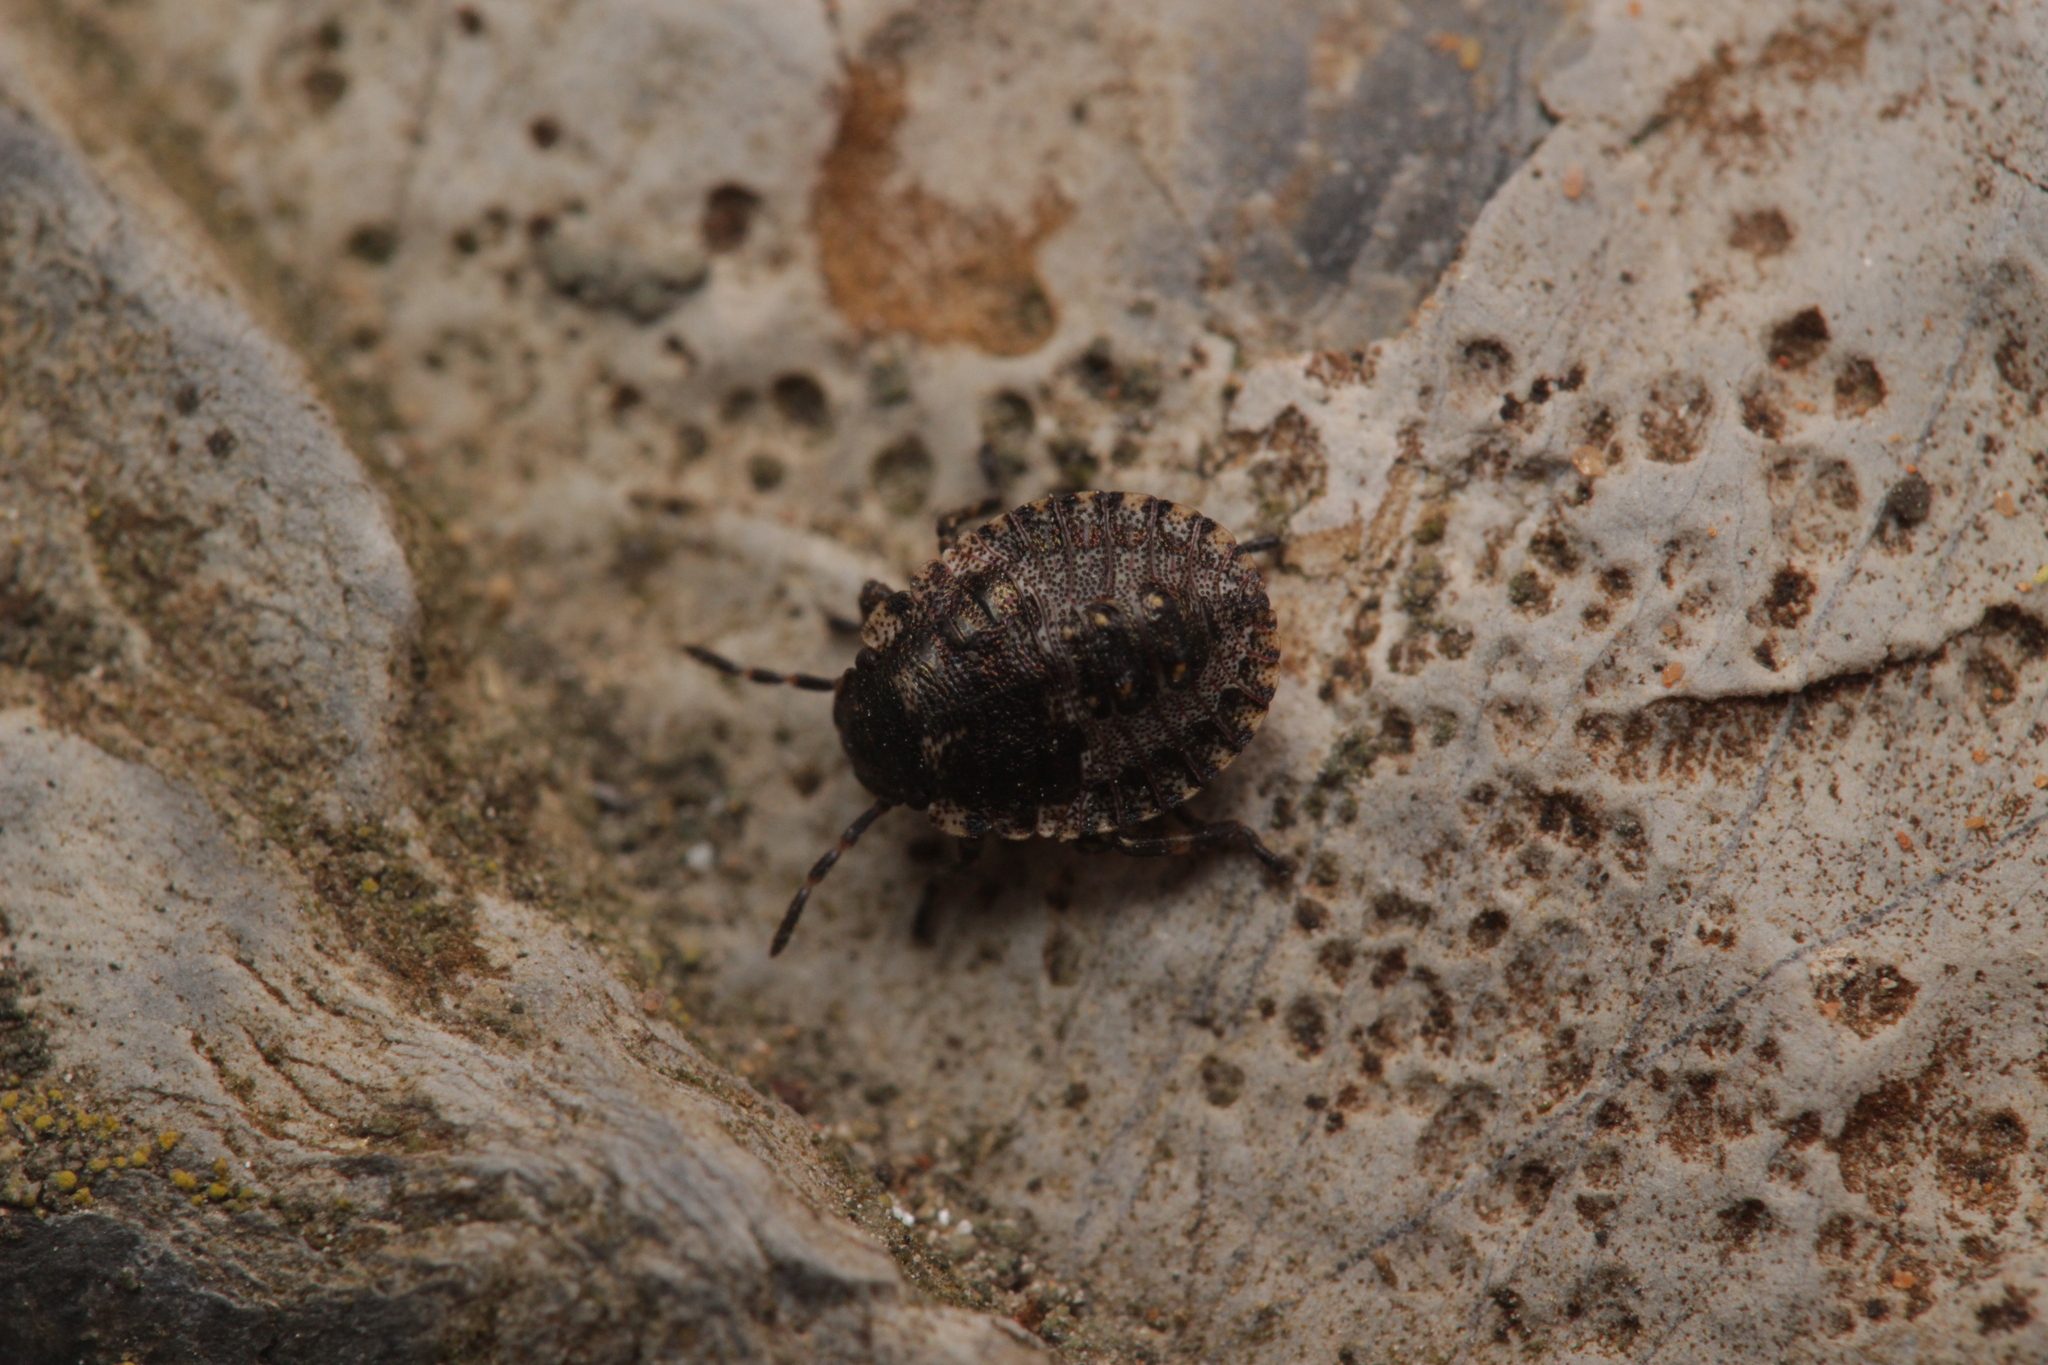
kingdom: Animalia
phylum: Arthropoda
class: Insecta
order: Hemiptera
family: Pentatomidae
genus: Pentatoma
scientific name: Pentatoma rufipes
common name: Forest bug
